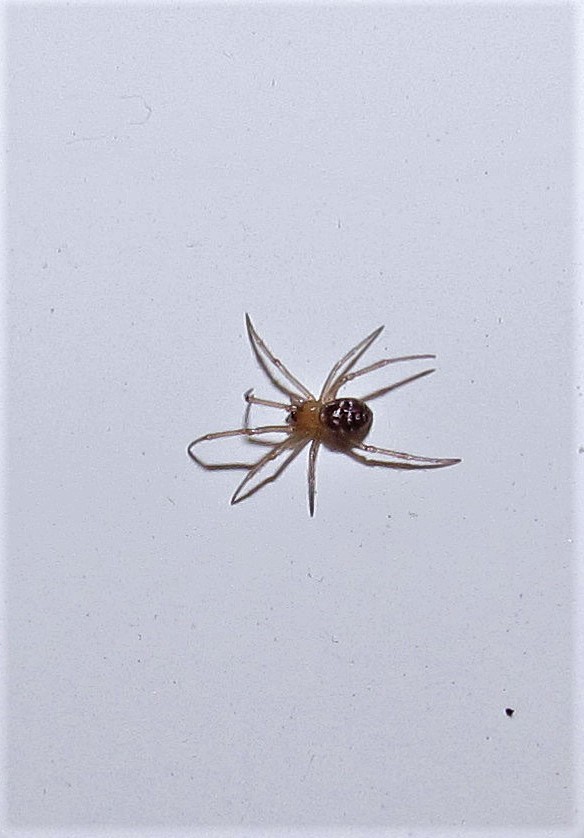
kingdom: Animalia
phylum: Arthropoda
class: Arachnida
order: Araneae
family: Theridiidae
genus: Steatoda
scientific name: Steatoda grossa
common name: False black widow
